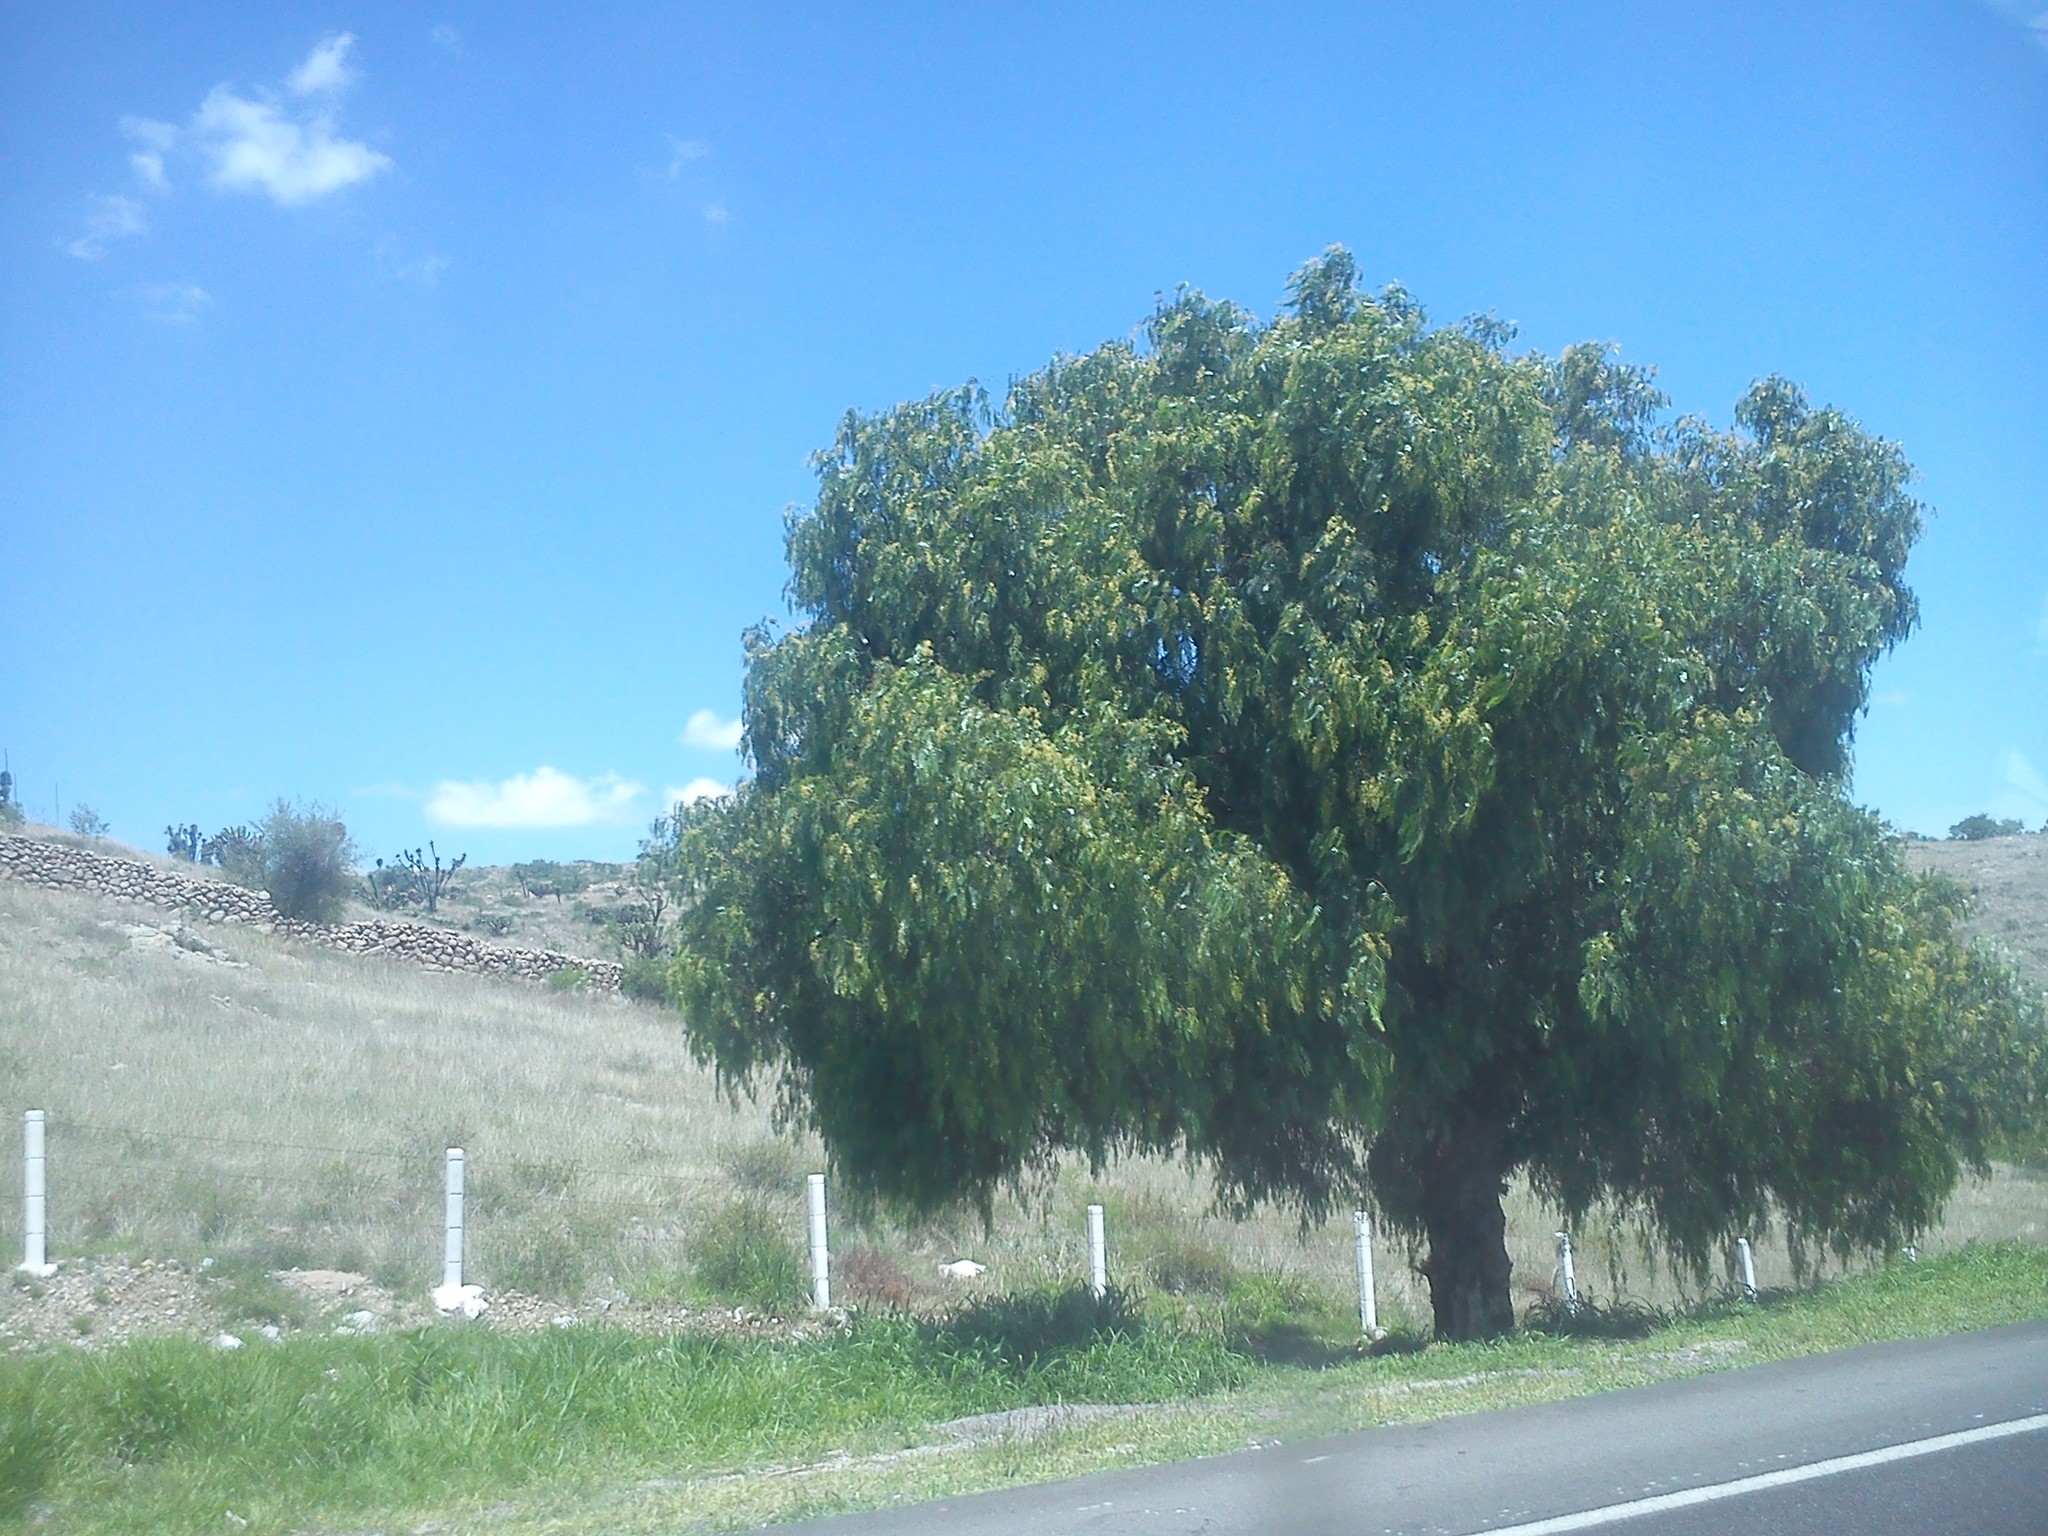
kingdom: Plantae
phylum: Tracheophyta
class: Magnoliopsida
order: Sapindales
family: Anacardiaceae
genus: Schinus
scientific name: Schinus molle
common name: Peruvian peppertree
